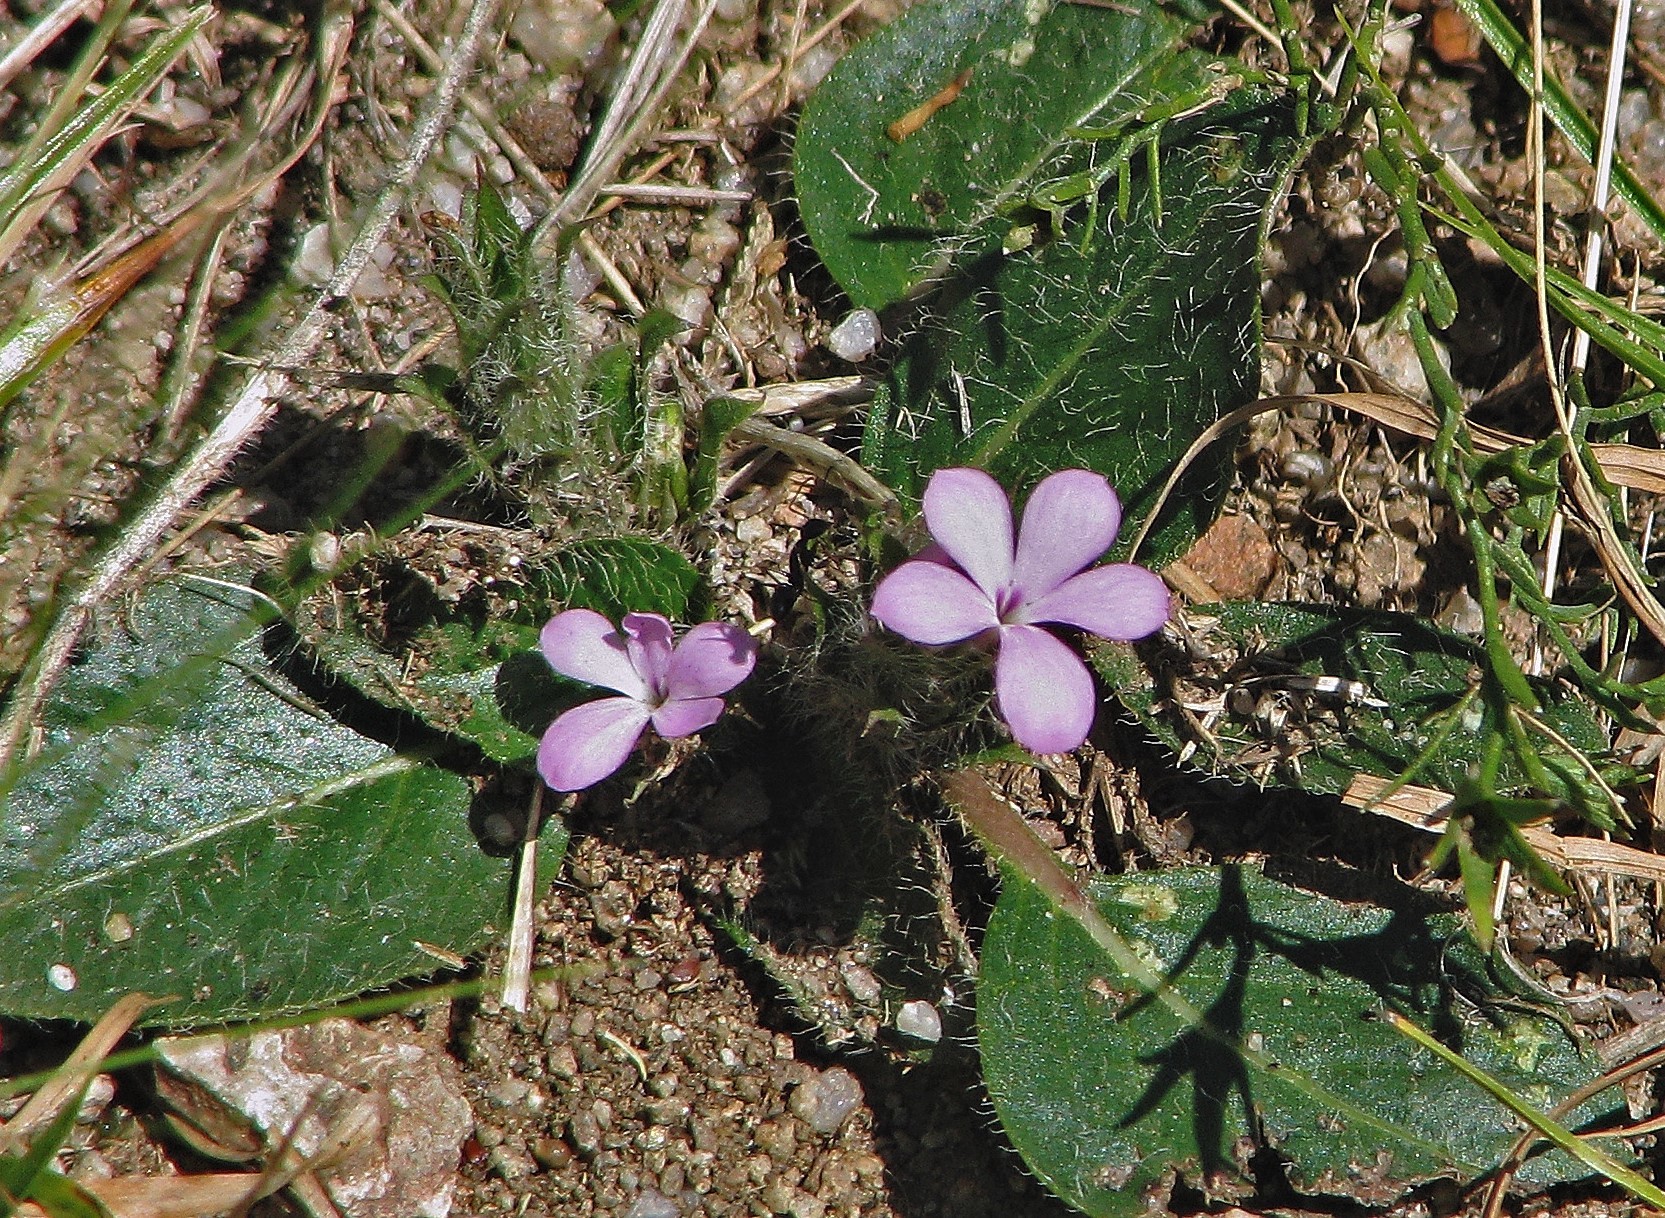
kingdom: Plantae
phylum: Tracheophyta
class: Magnoliopsida
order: Lamiales
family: Acanthaceae
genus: Stenandrium
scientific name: Stenandrium dulce
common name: Pinklet
